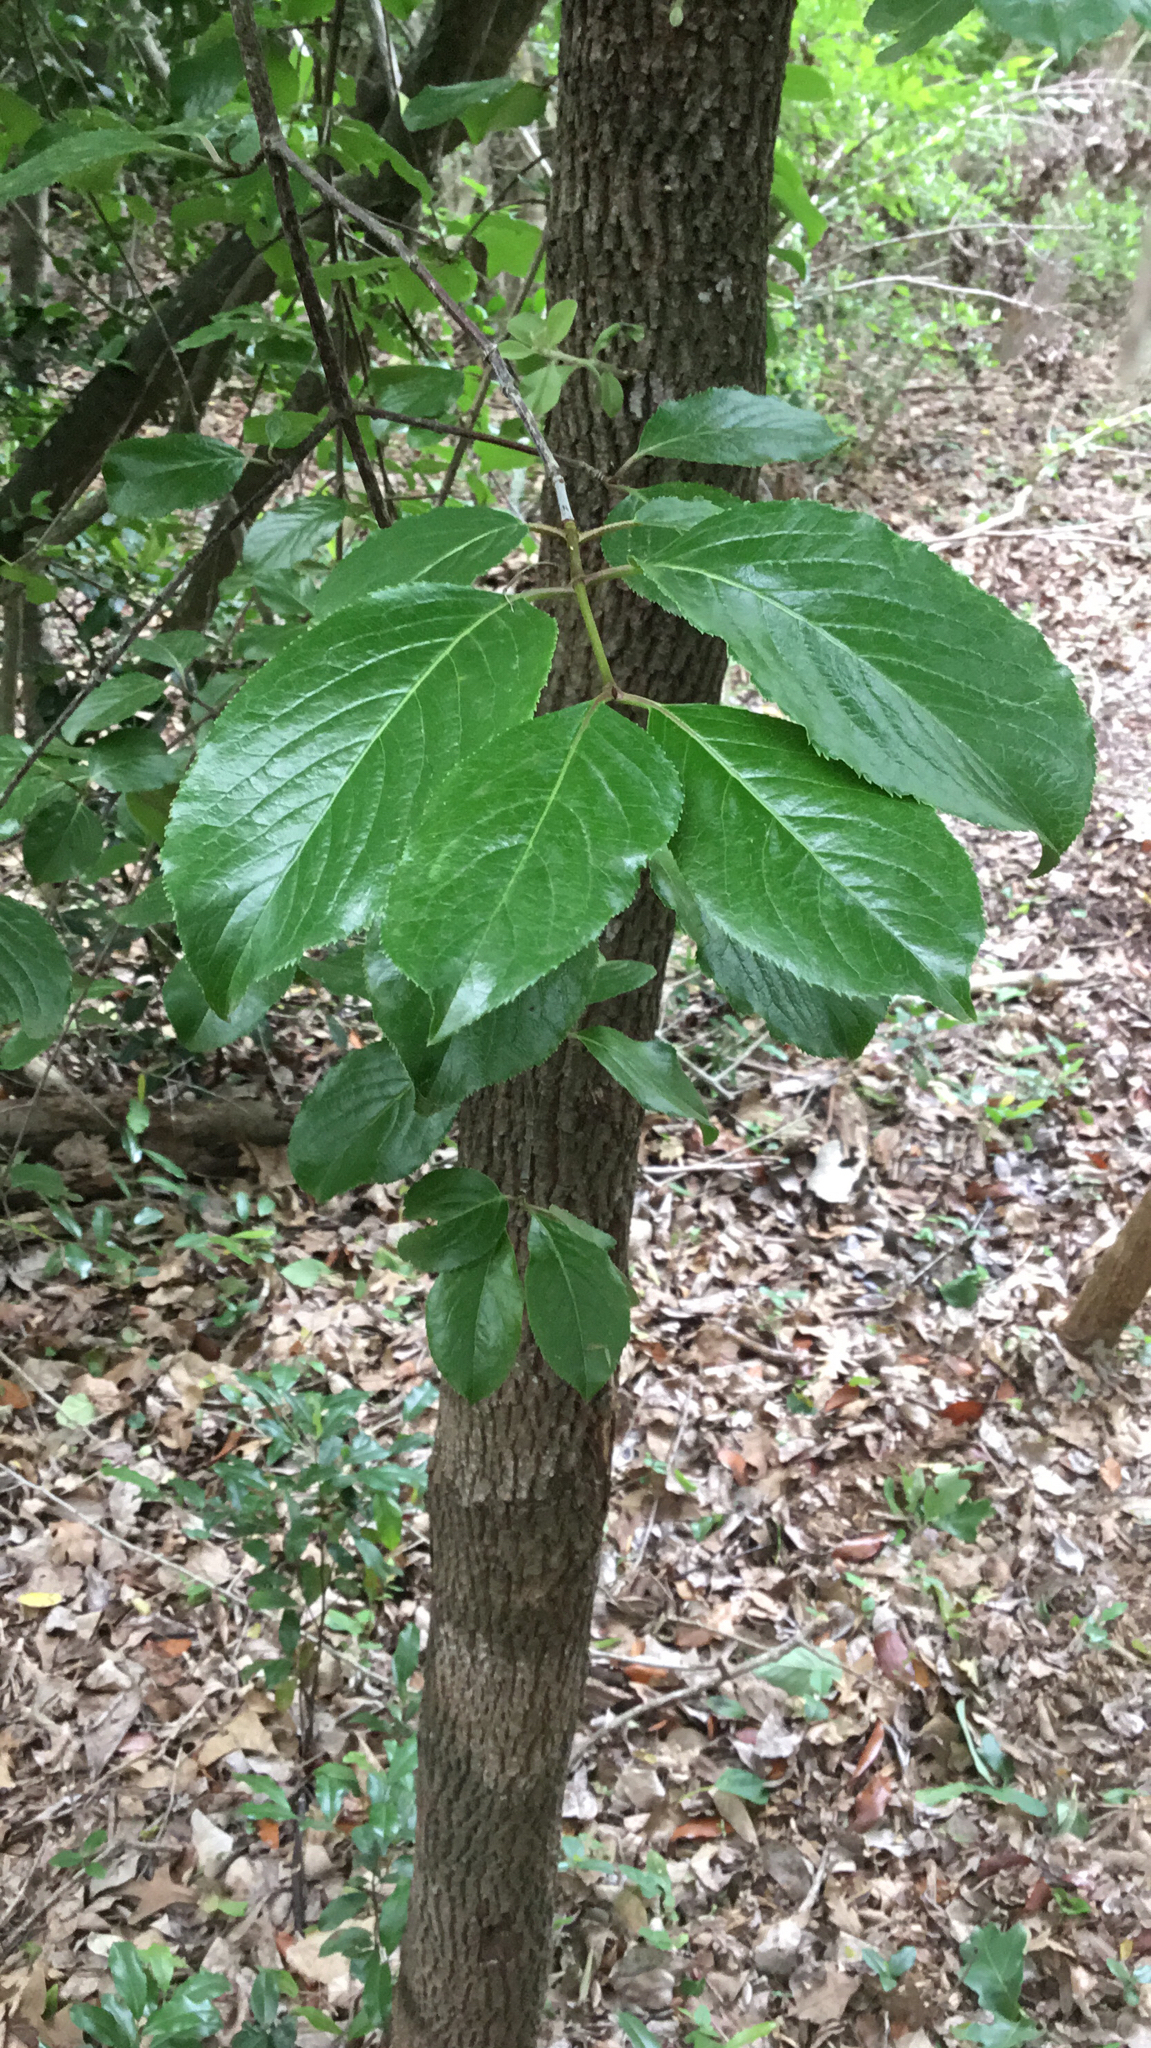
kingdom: Plantae
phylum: Tracheophyta
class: Magnoliopsida
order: Dipsacales
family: Viburnaceae
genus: Viburnum
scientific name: Viburnum rufidulum
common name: Blue haw
